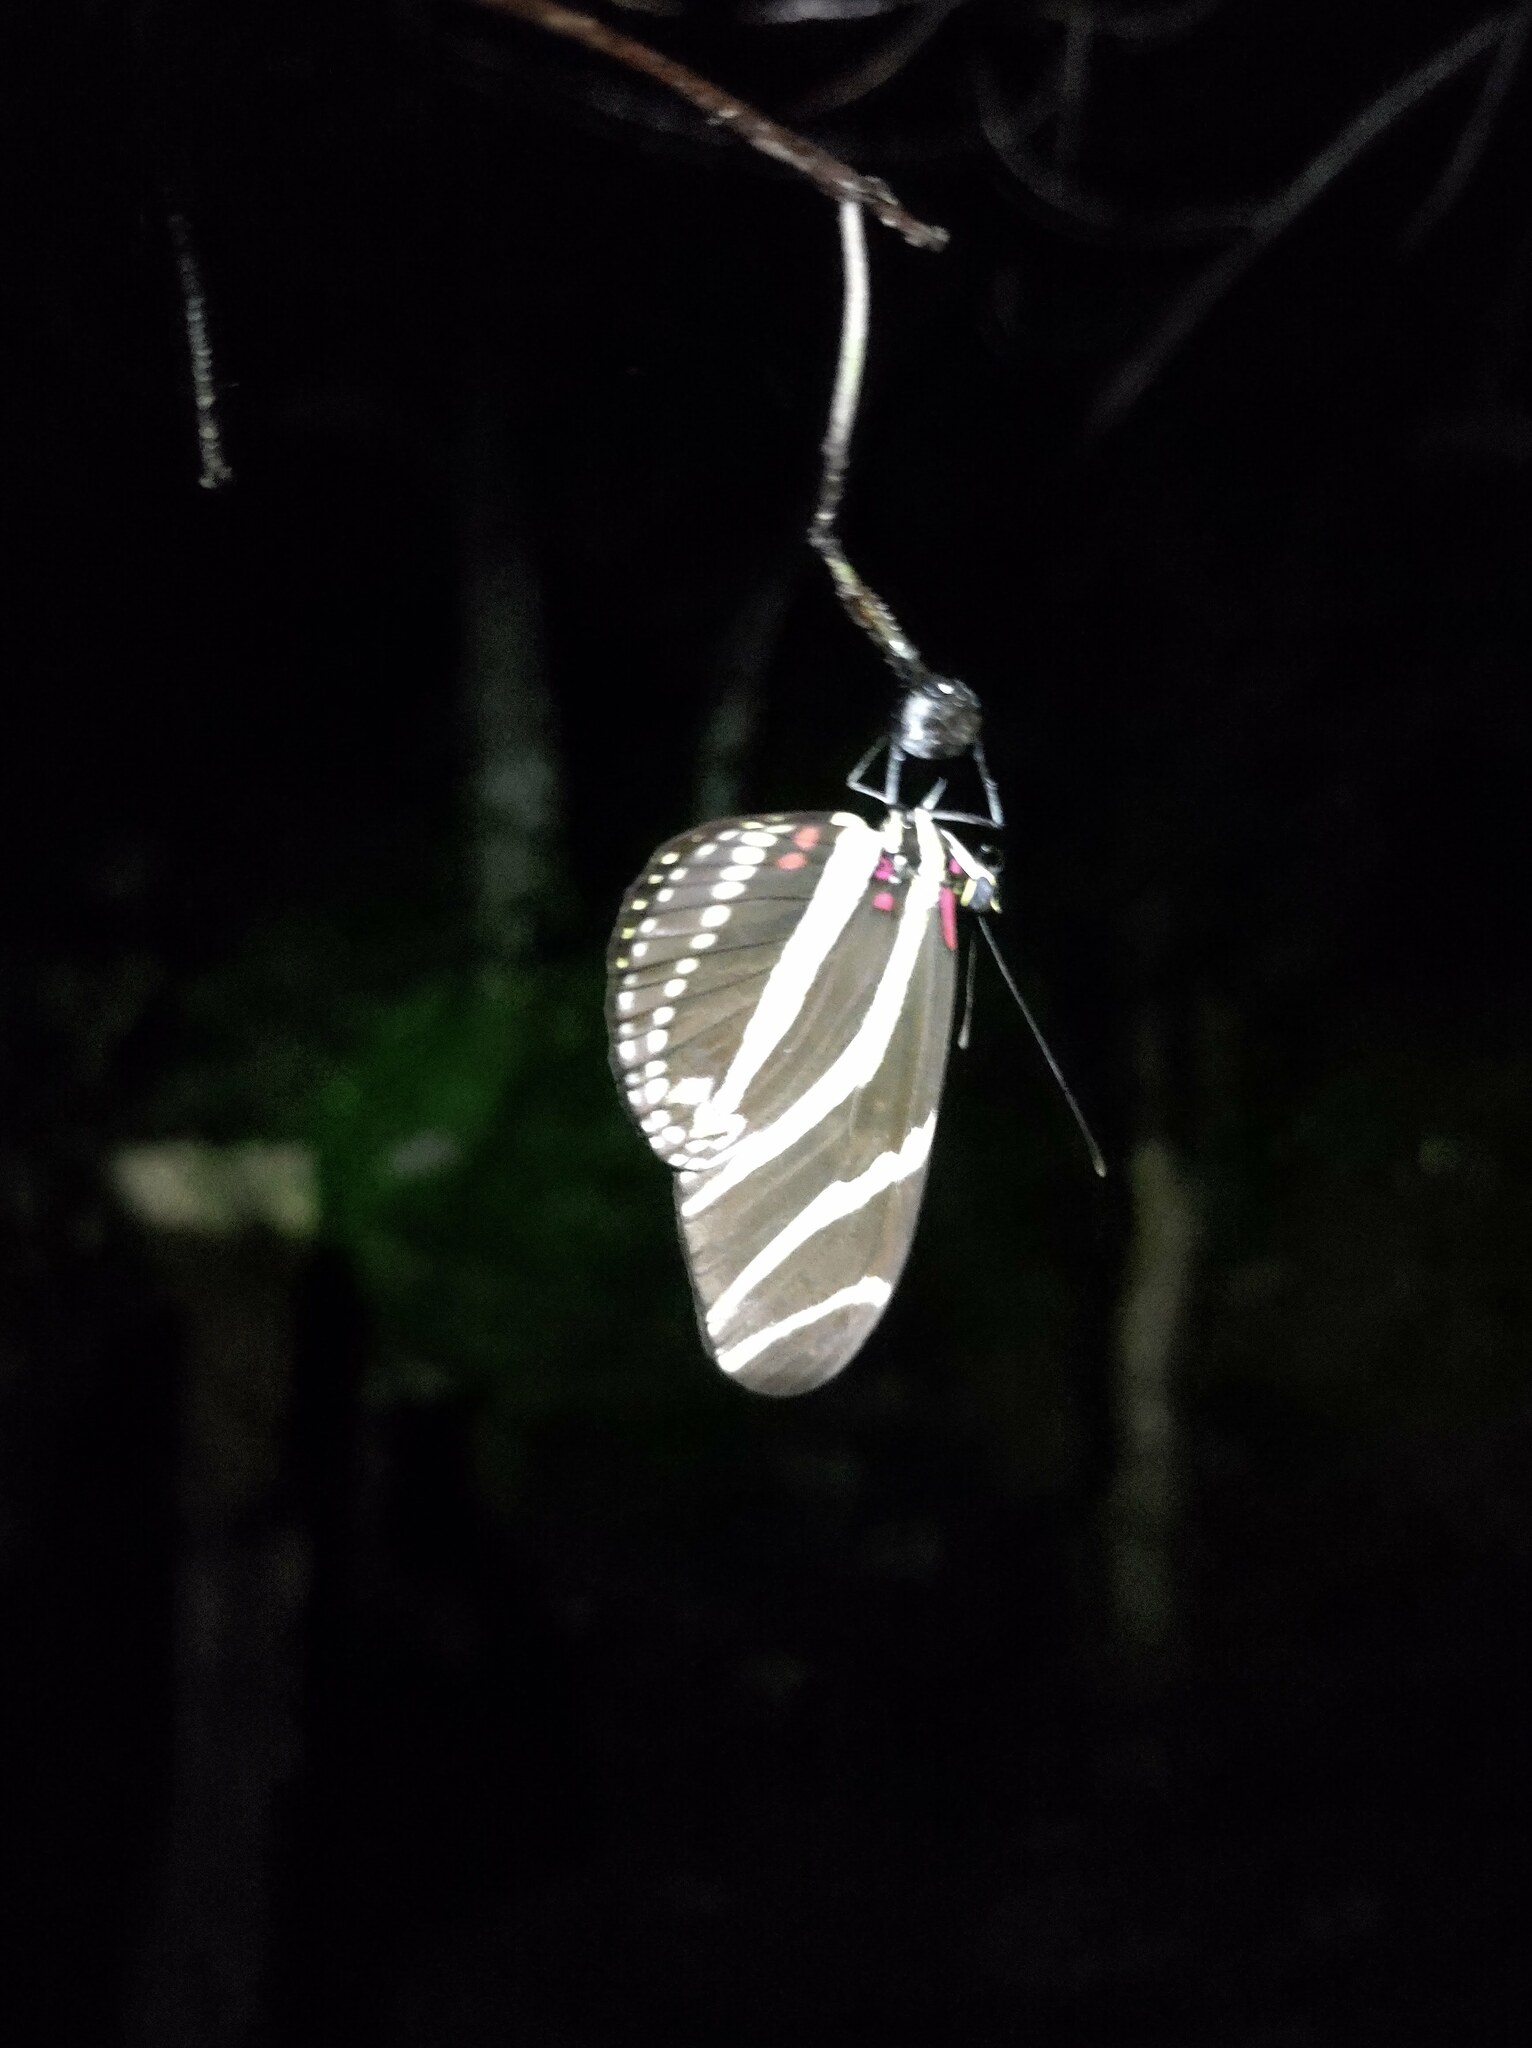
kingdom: Animalia
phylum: Arthropoda
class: Insecta
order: Lepidoptera
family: Nymphalidae
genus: Heliconius
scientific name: Heliconius charithonia
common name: Zebra long wing
